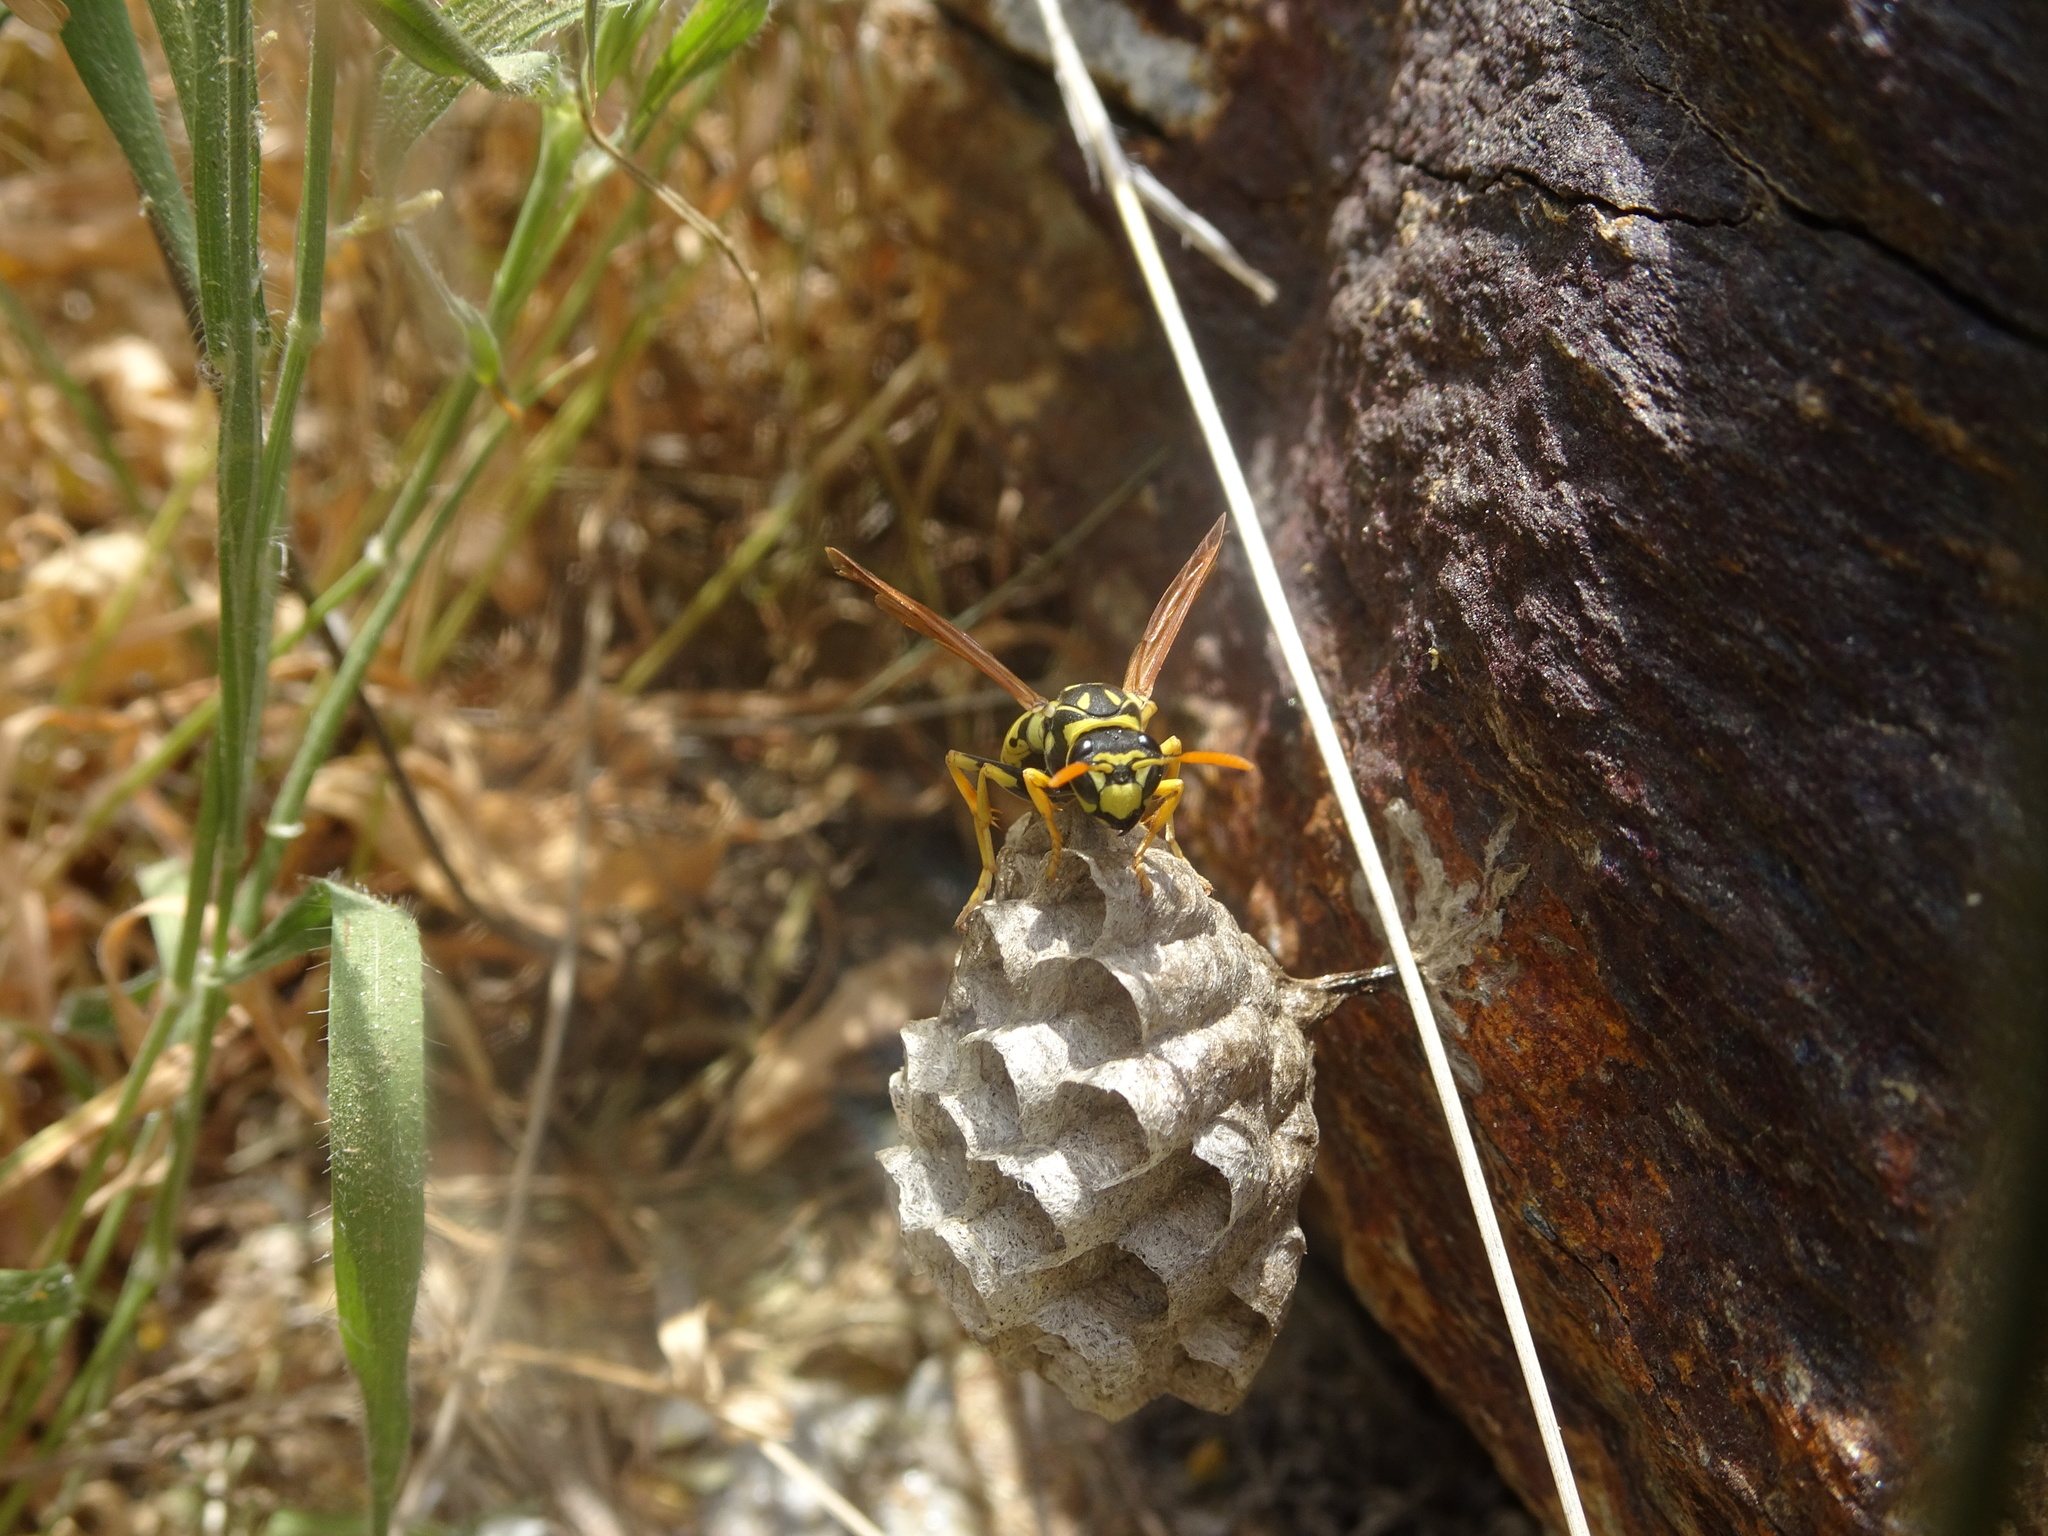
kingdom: Animalia
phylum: Arthropoda
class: Insecta
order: Hymenoptera
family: Eumenidae
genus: Polistes
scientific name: Polistes dominula
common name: Paper wasp
